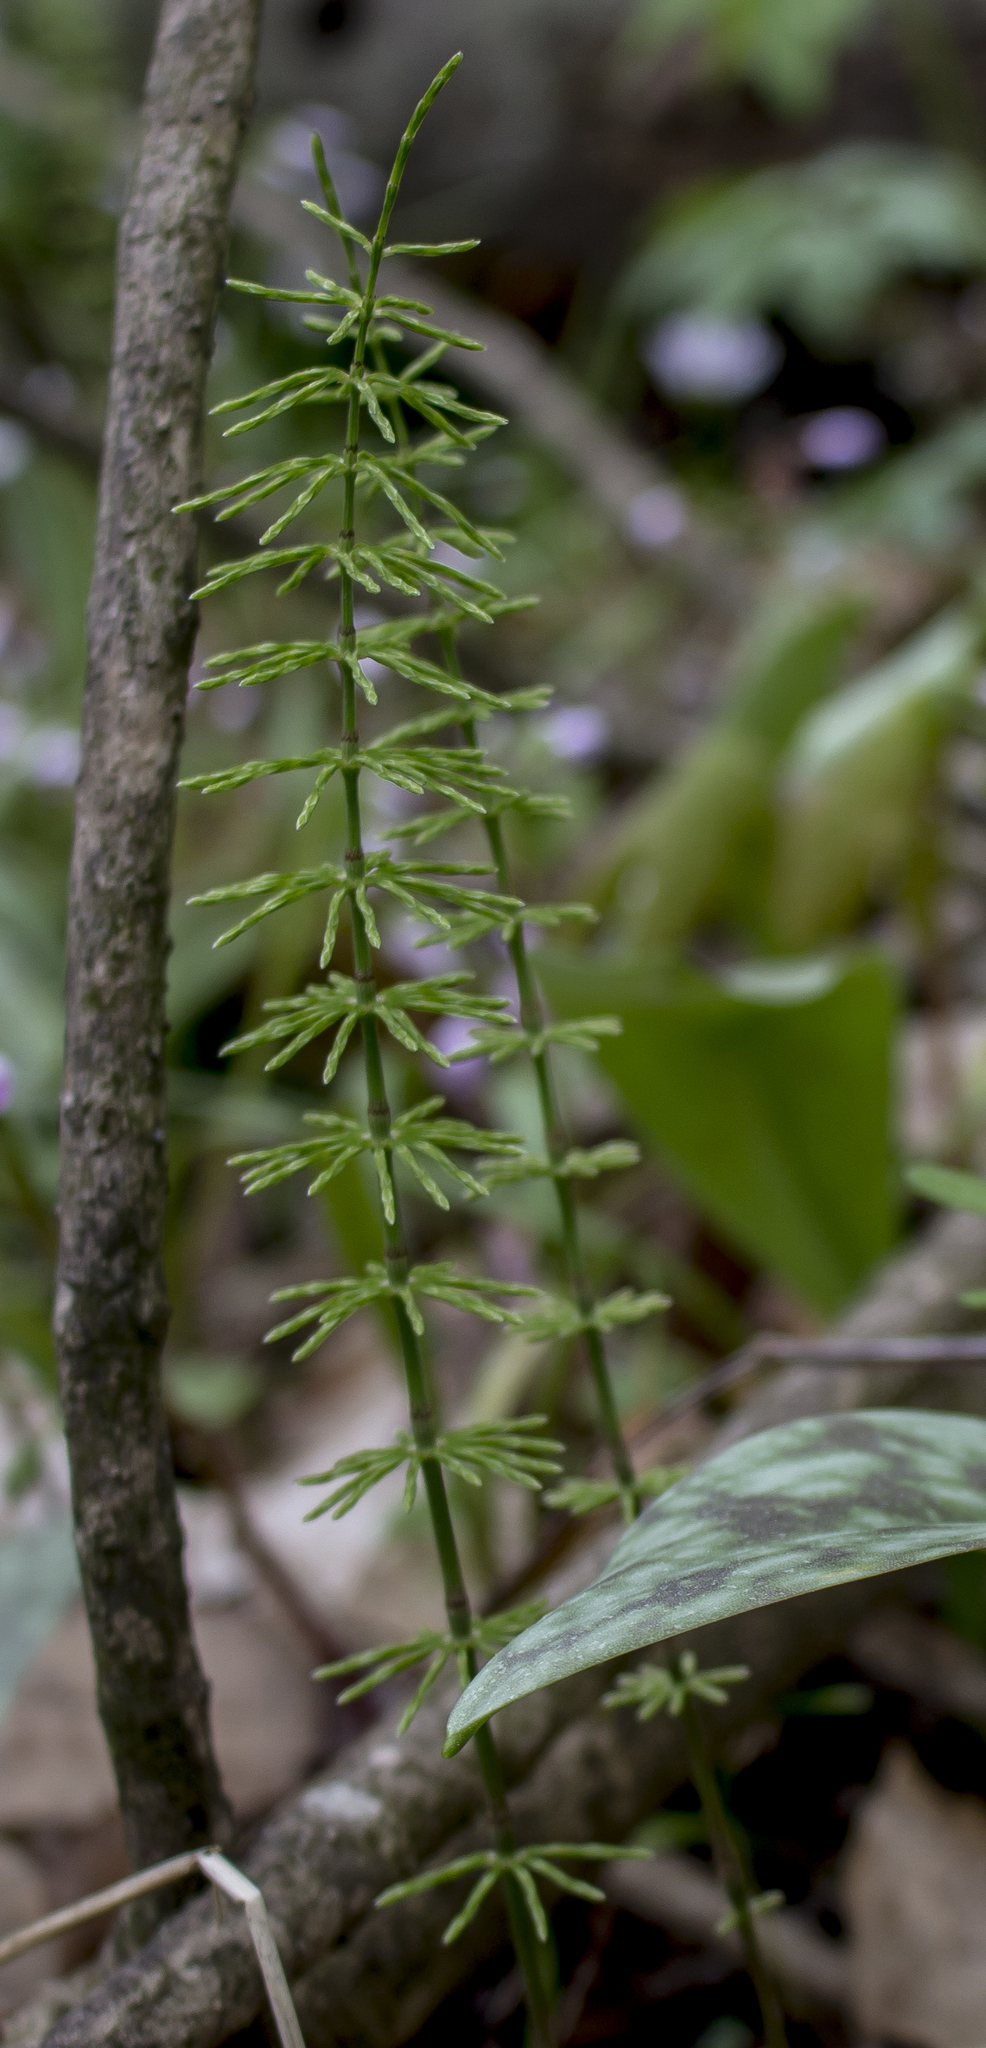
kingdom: Plantae
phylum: Tracheophyta
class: Polypodiopsida
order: Equisetales
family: Equisetaceae
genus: Equisetum
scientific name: Equisetum arvense
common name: Field horsetail
